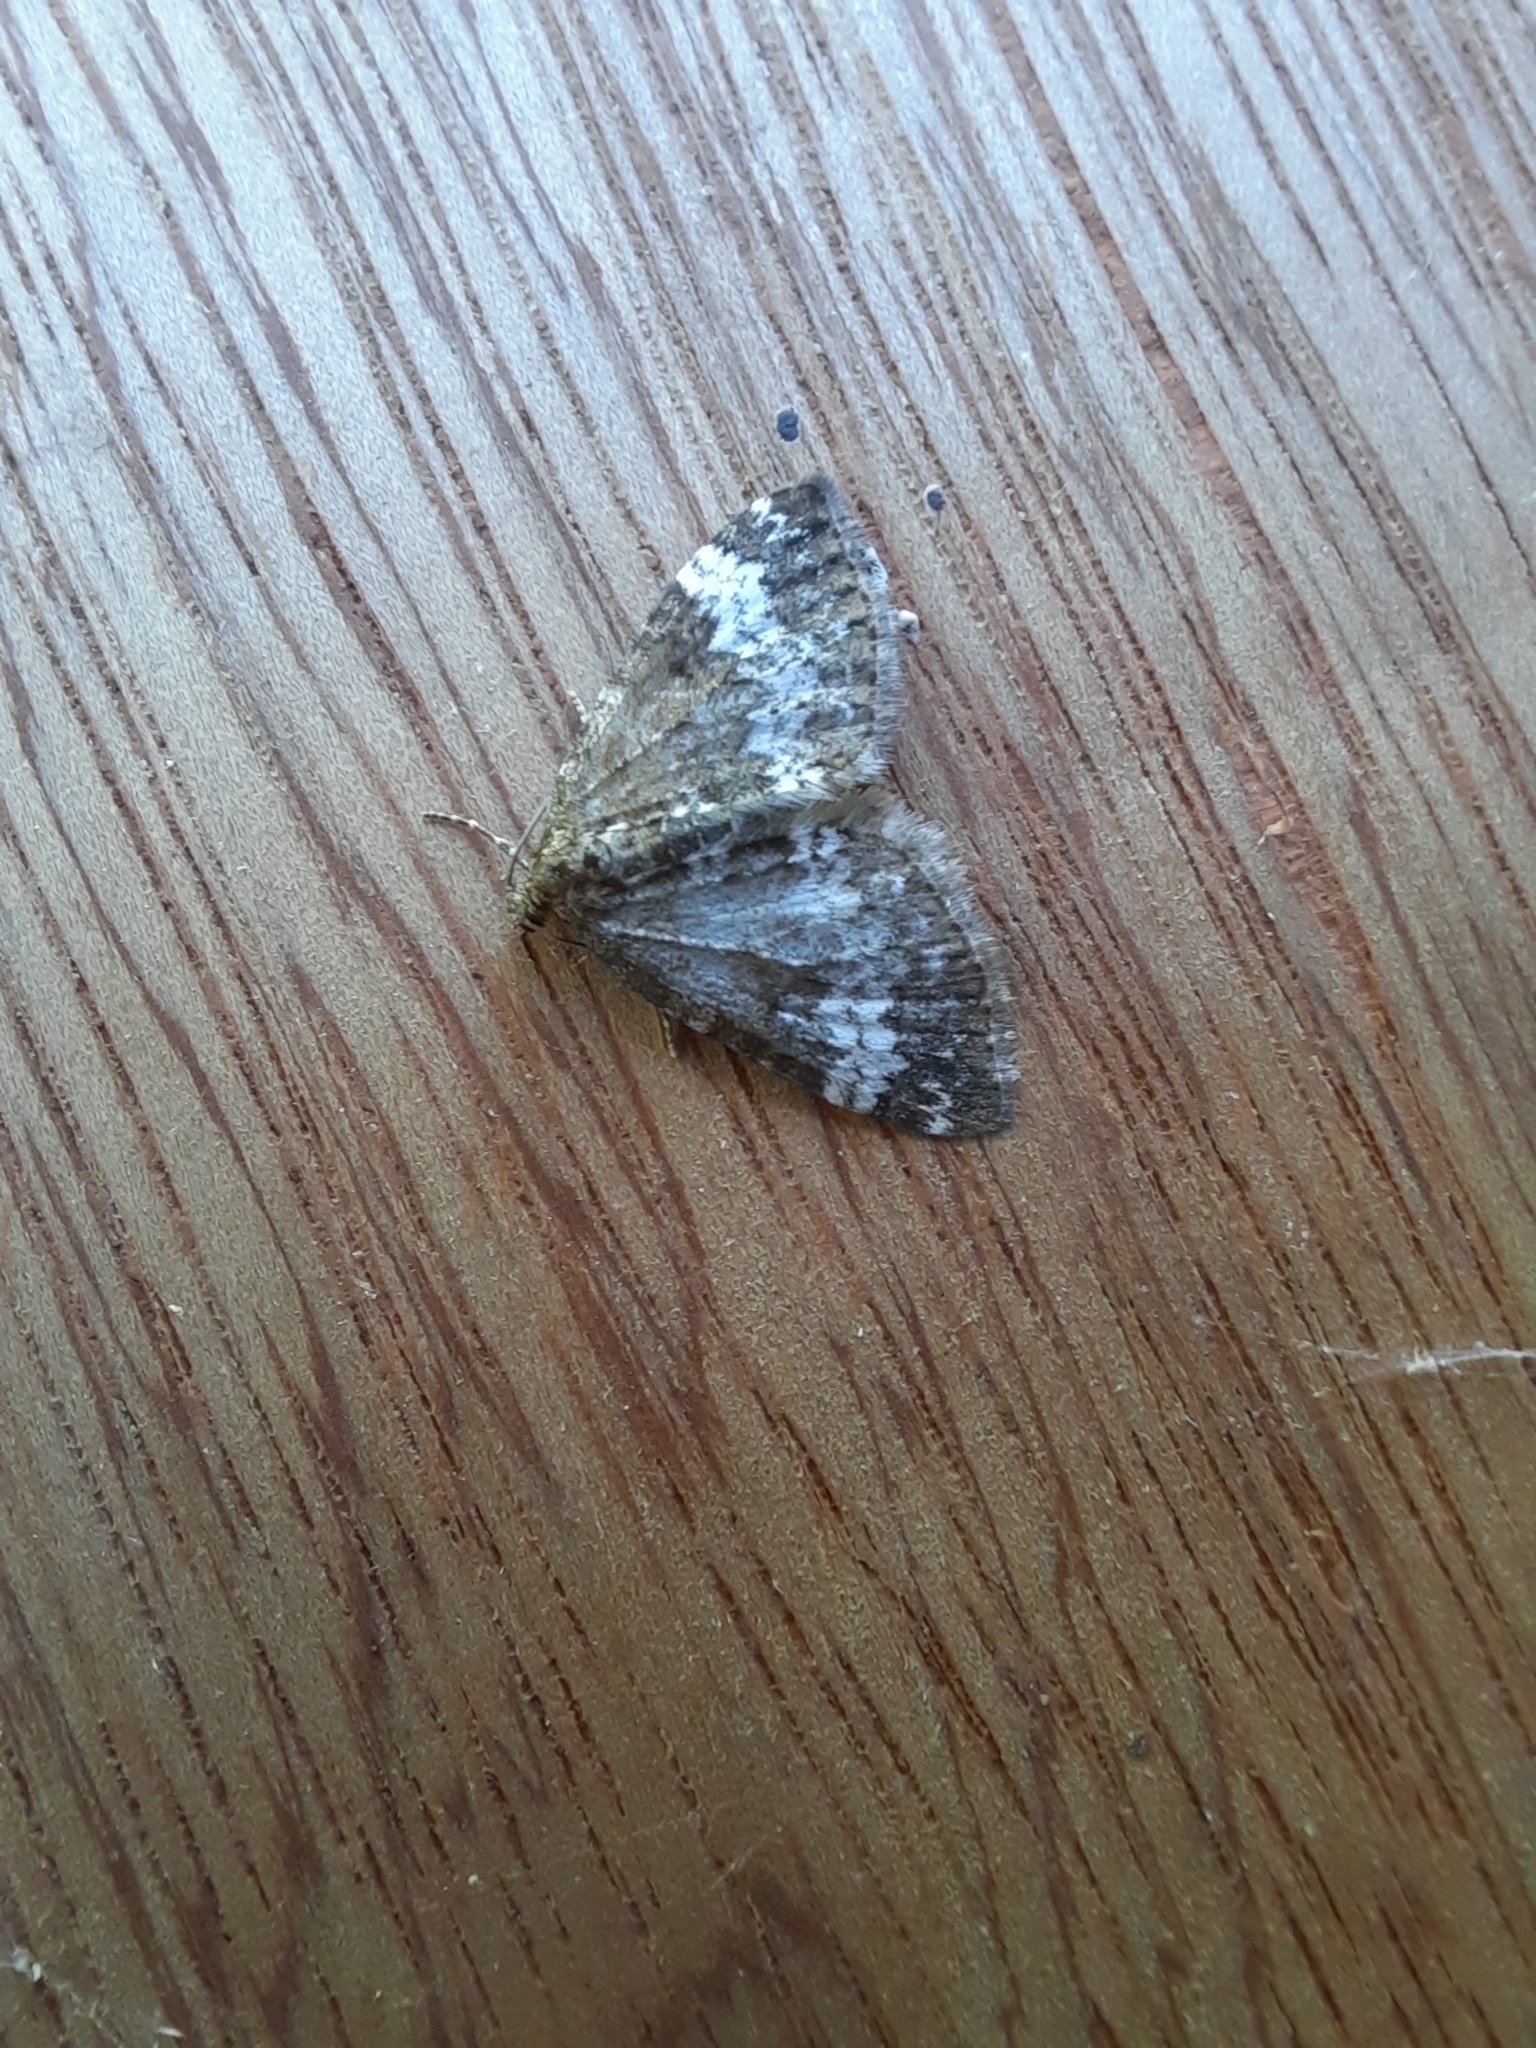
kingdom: Animalia
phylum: Arthropoda
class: Insecta
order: Lepidoptera
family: Geometridae
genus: Perizoma
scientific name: Perizoma affinitata
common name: Rivulet
